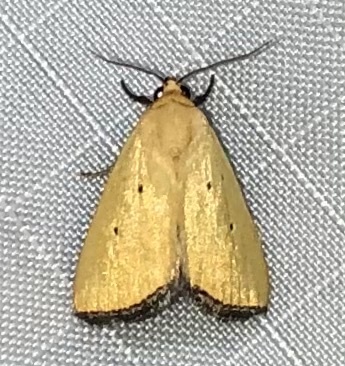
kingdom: Animalia
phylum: Arthropoda
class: Insecta
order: Lepidoptera
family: Noctuidae
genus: Marimatha
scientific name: Marimatha nigrofimbria
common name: Black-bordered lemon moth
